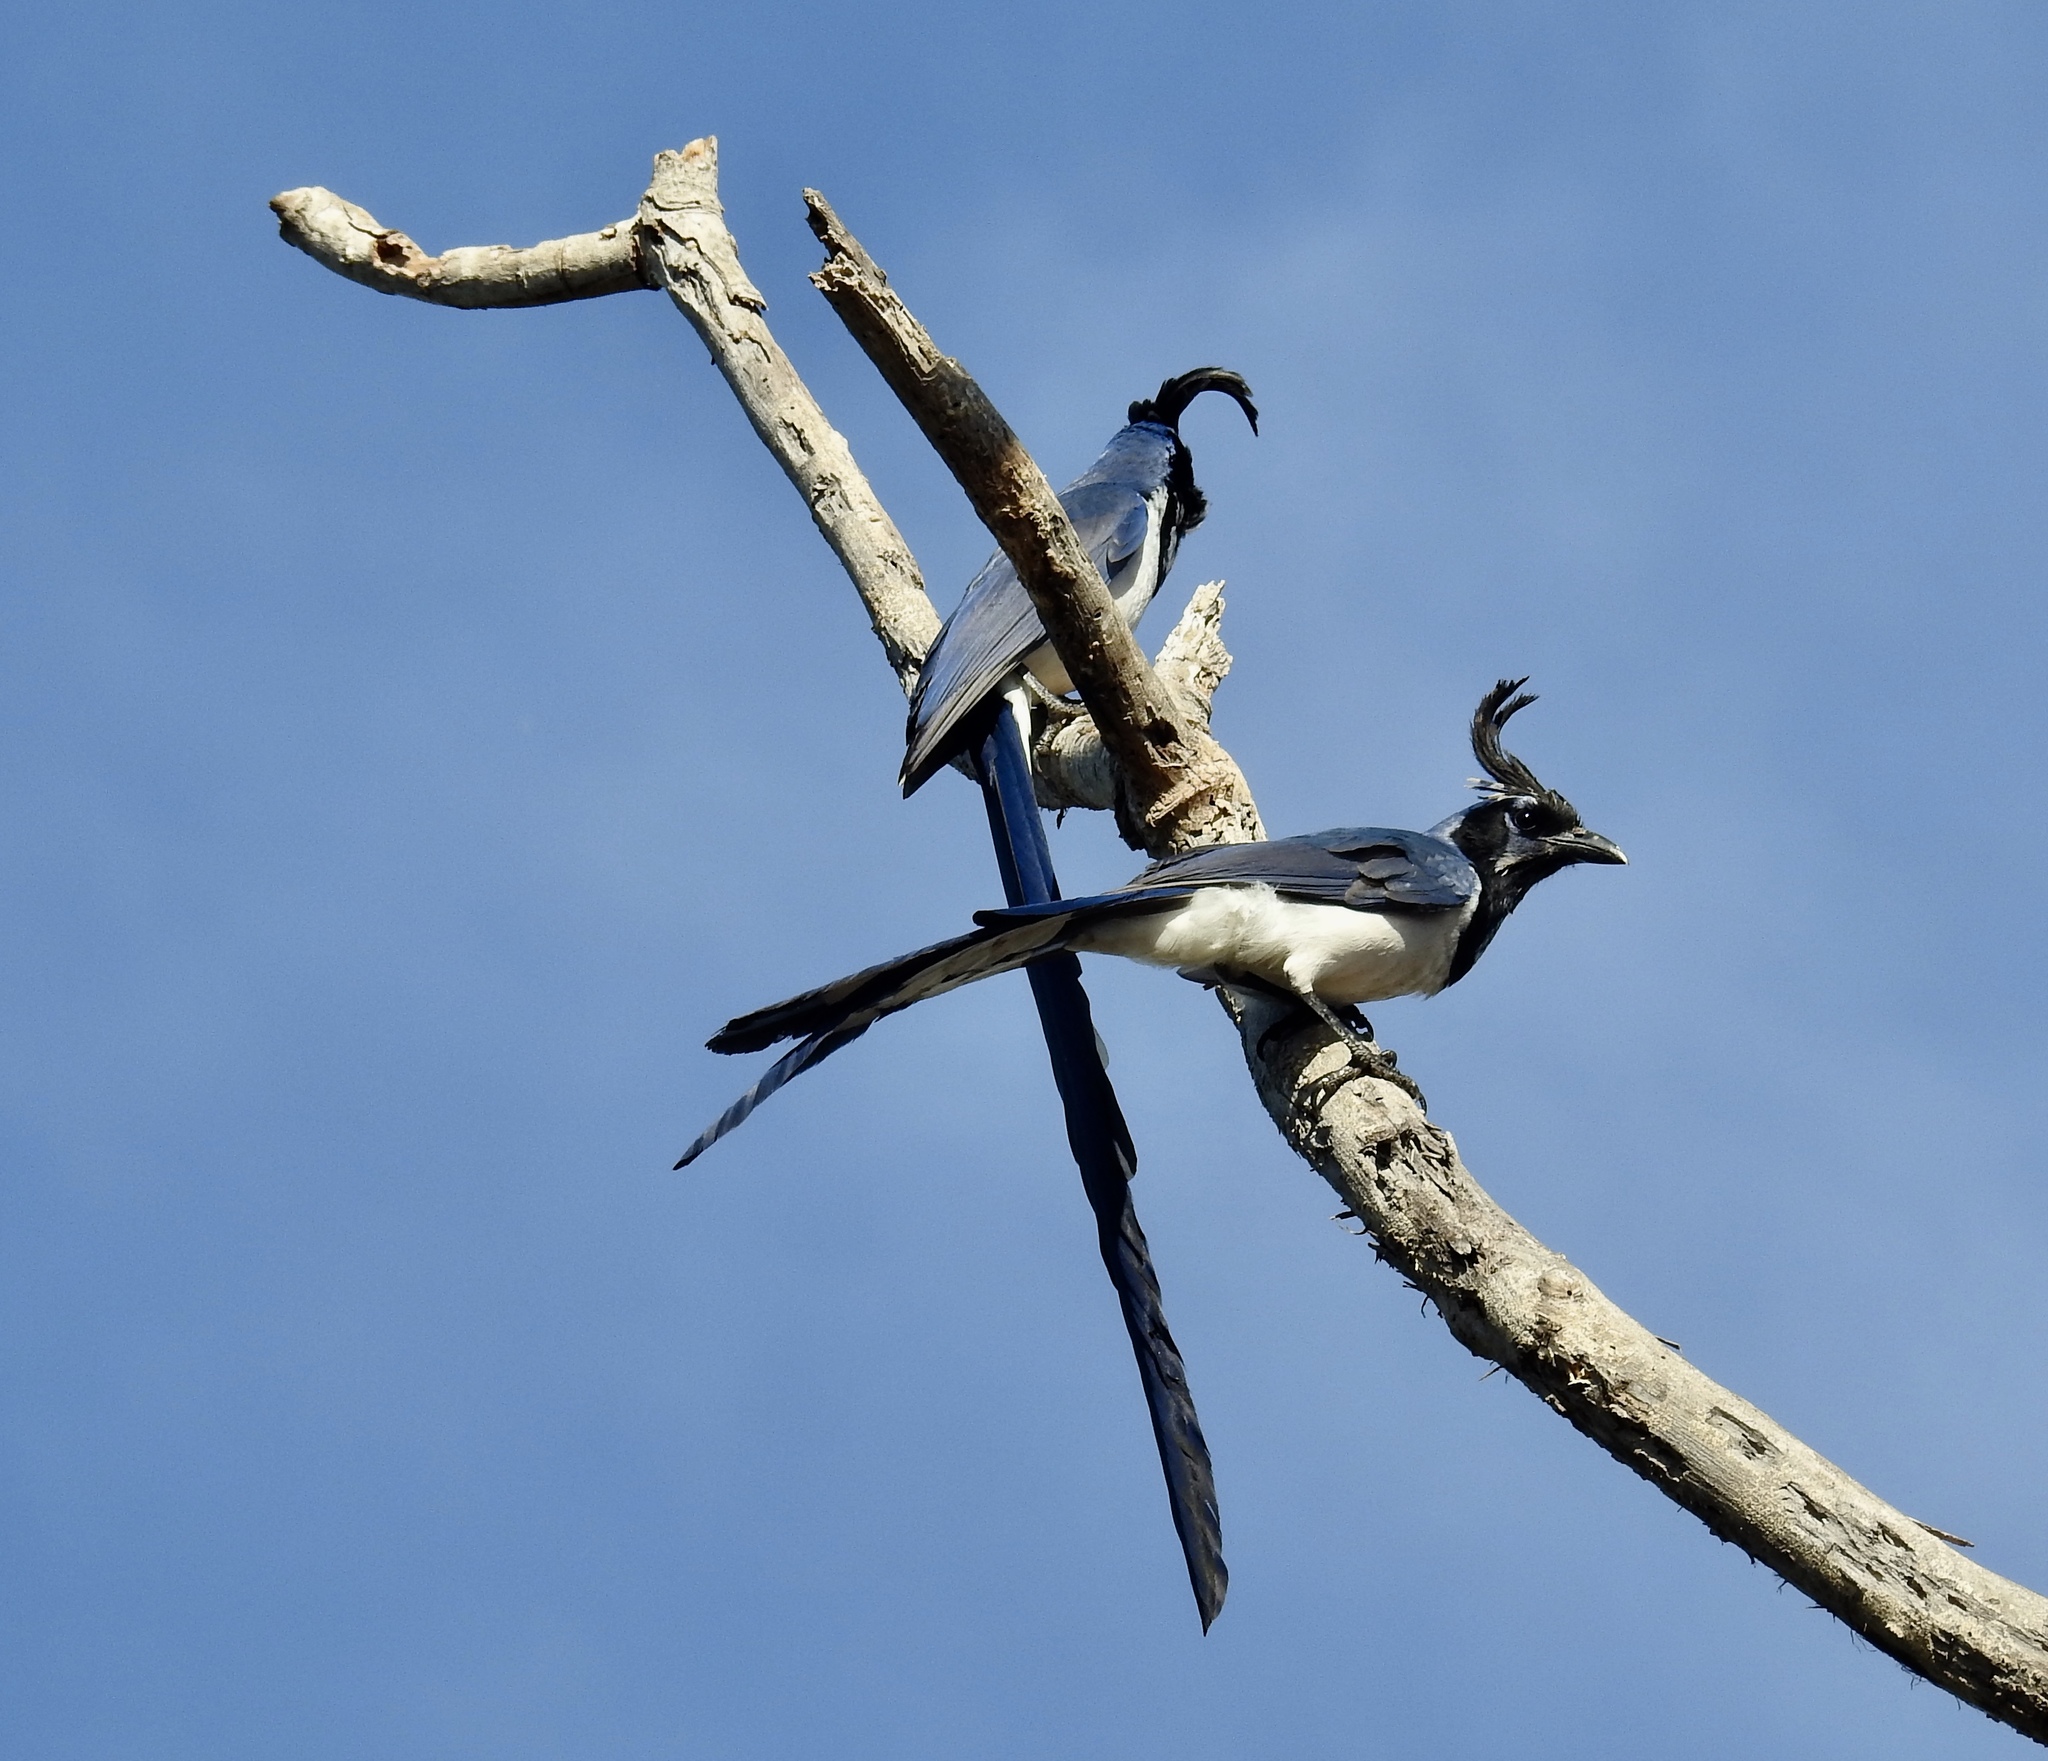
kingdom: Animalia
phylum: Chordata
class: Aves
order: Passeriformes
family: Corvidae
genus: Calocitta
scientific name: Calocitta colliei
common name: Black-throated magpie-jay
